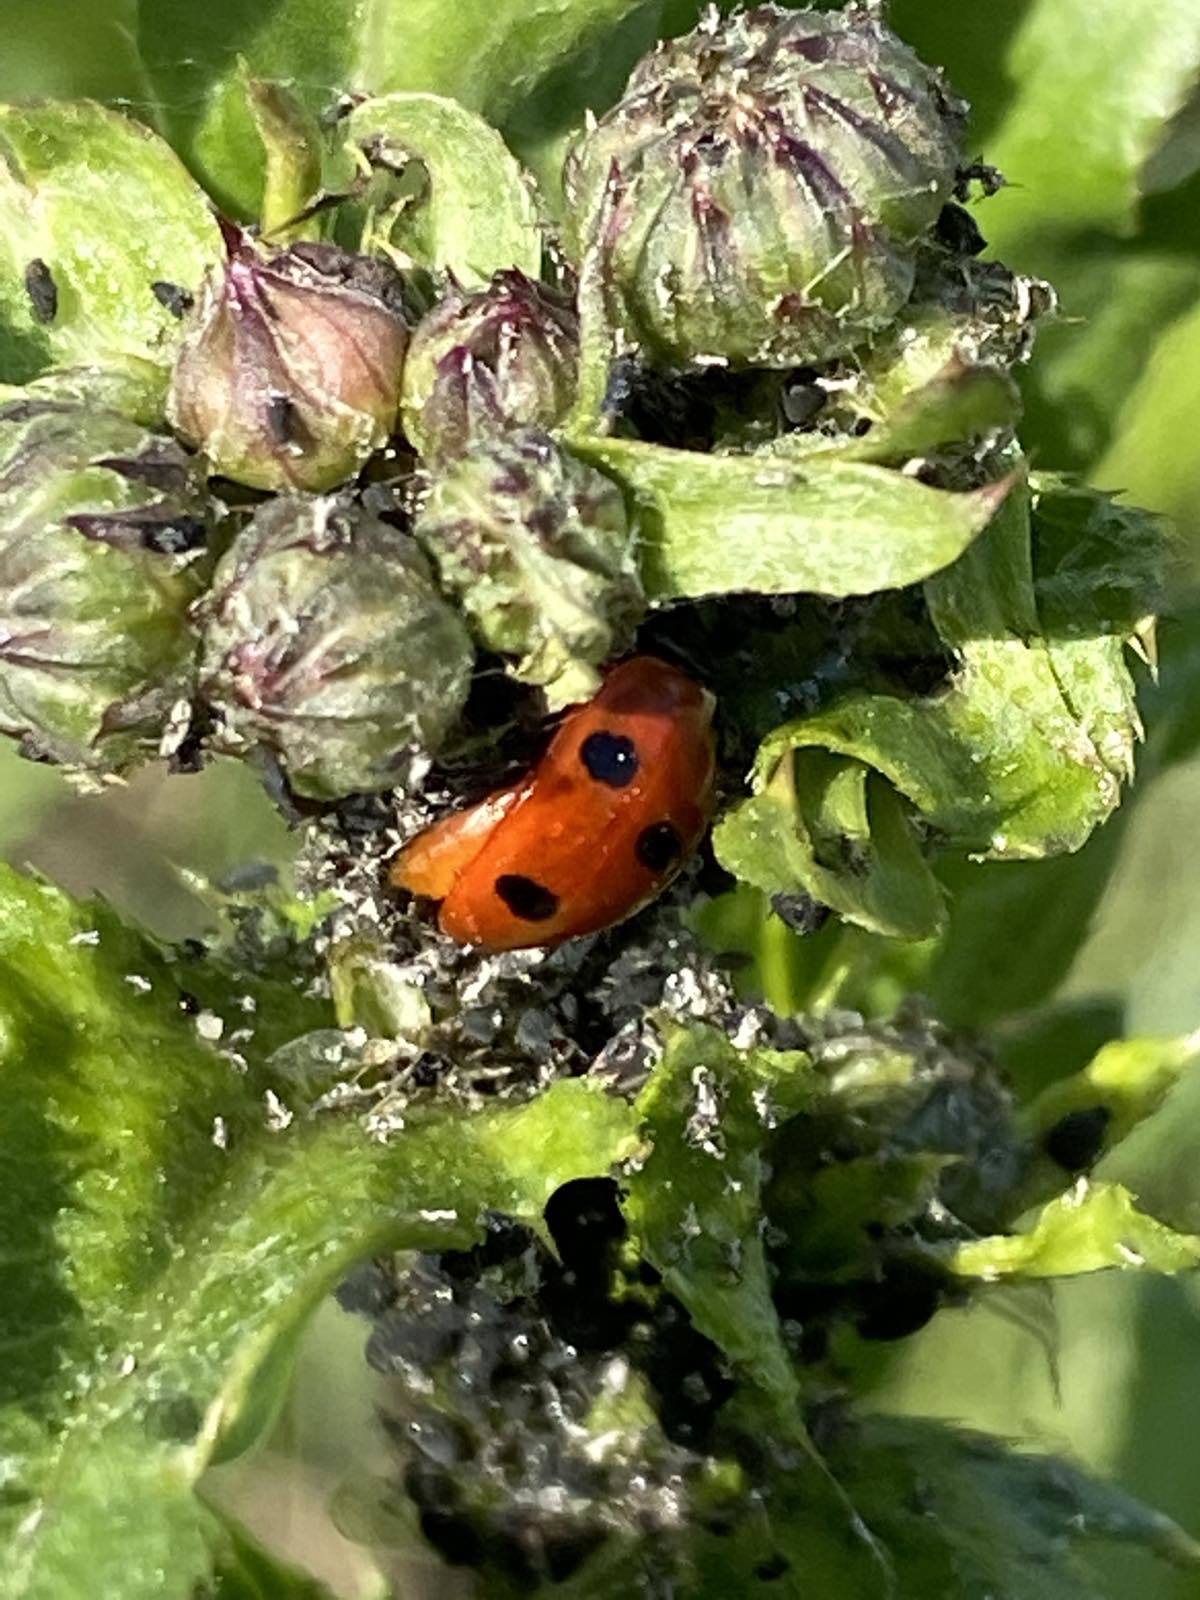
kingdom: Animalia
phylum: Arthropoda
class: Insecta
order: Coleoptera
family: Coccinellidae
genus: Coccinella
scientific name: Coccinella septempunctata
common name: Sevenspotted lady beetle
